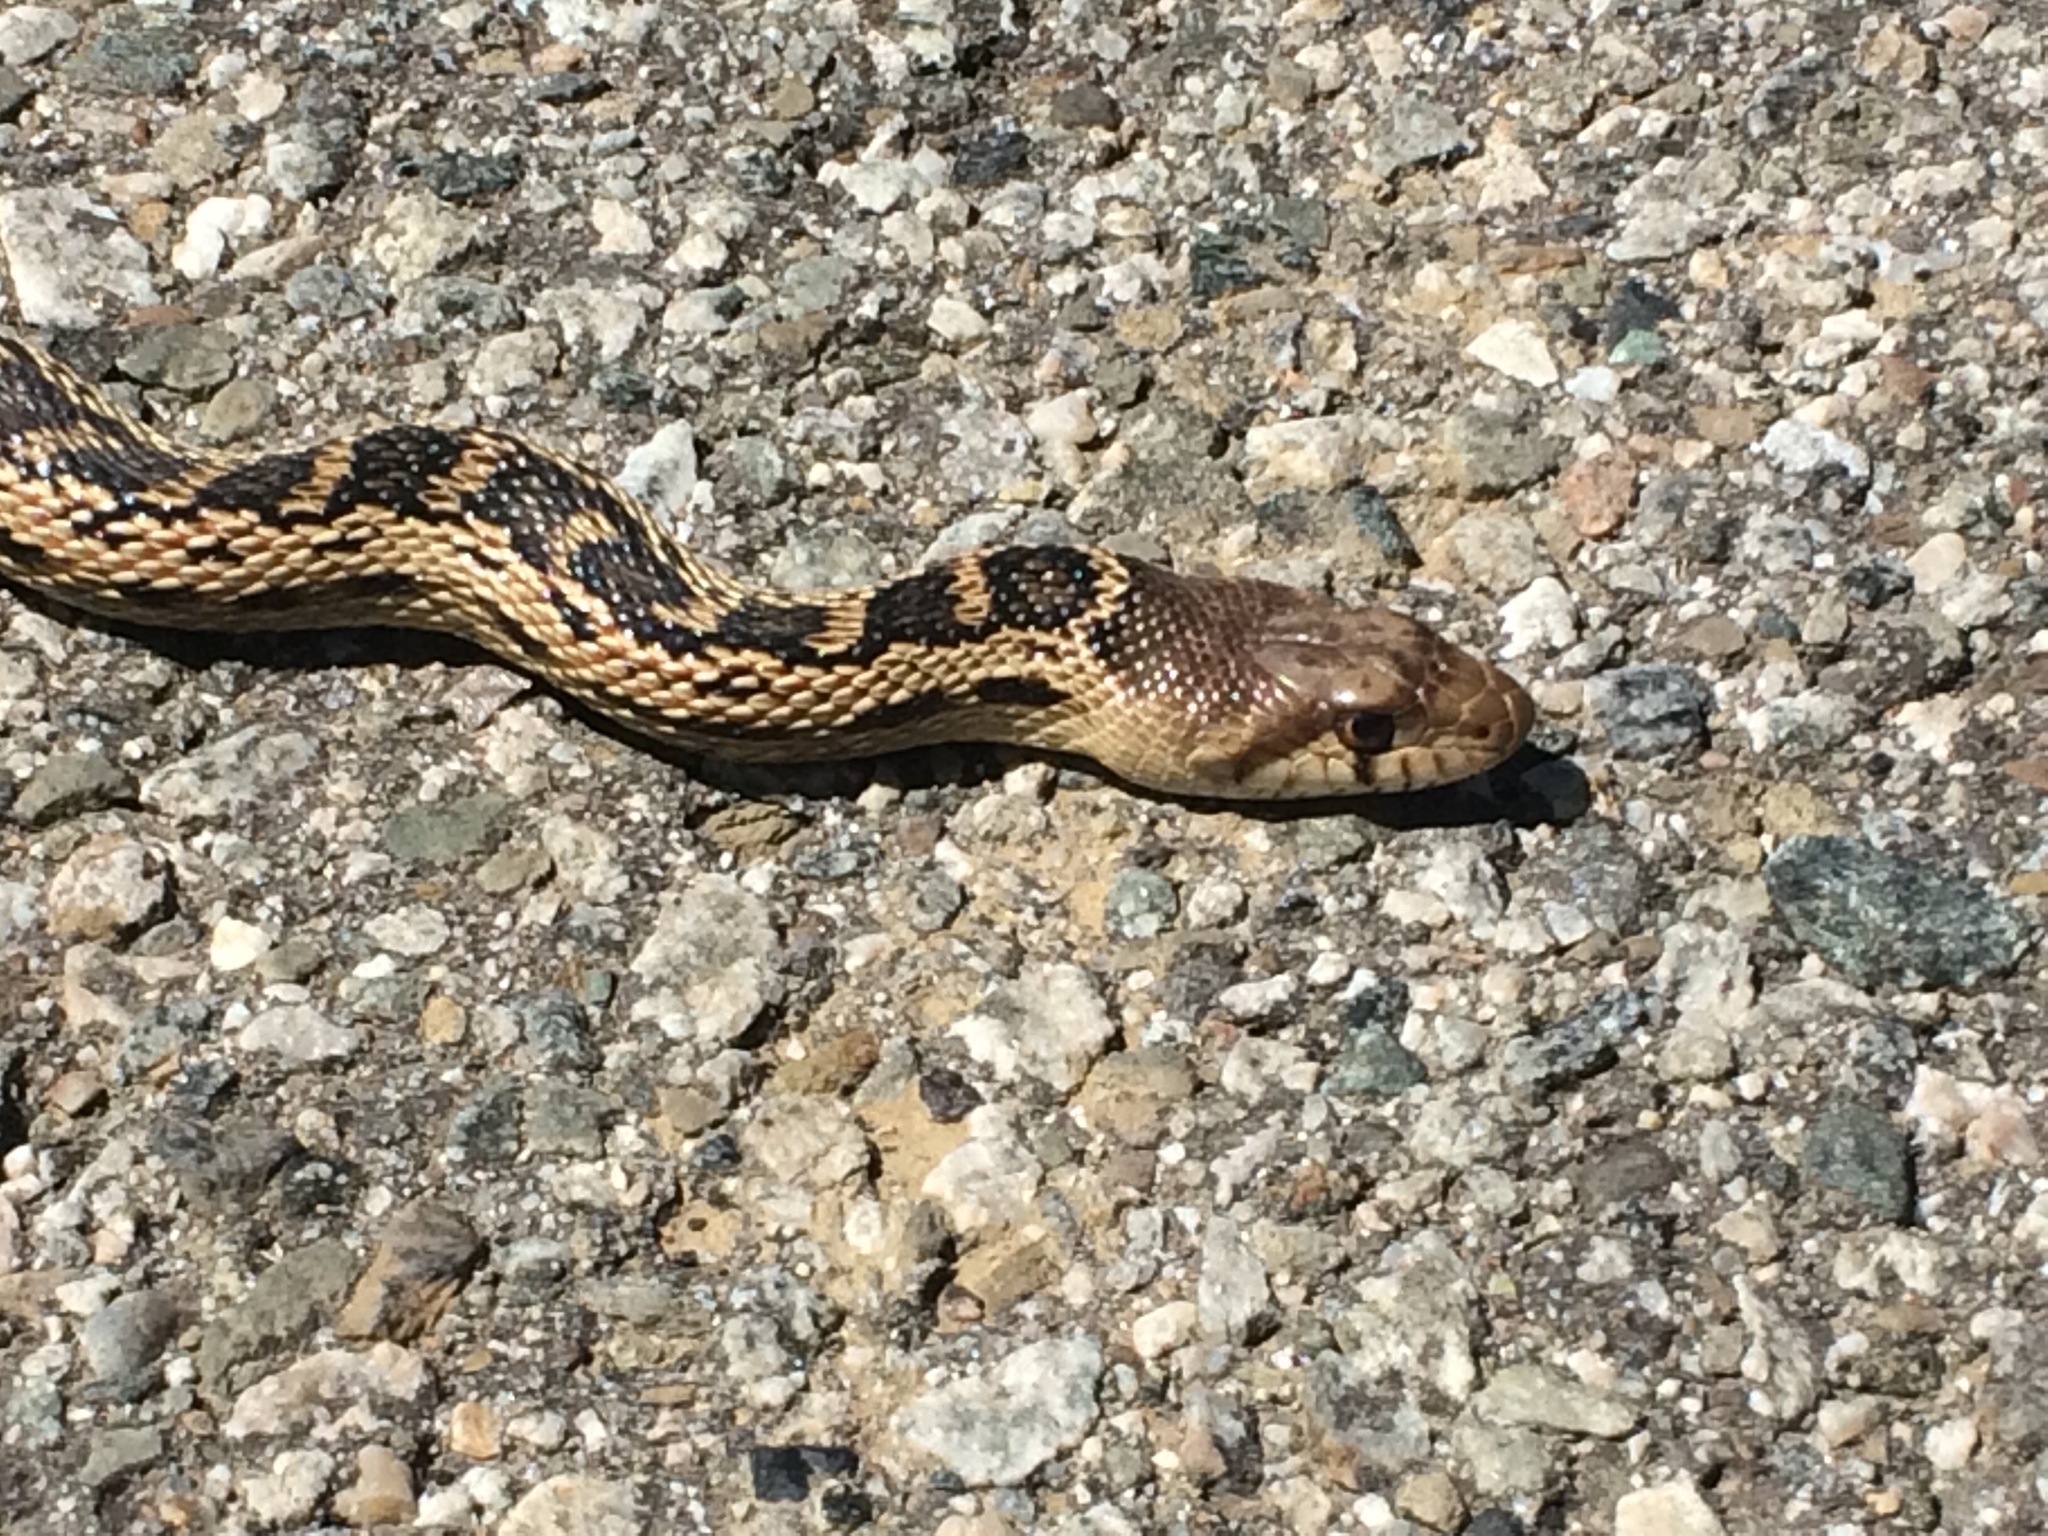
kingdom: Animalia
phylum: Chordata
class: Squamata
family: Colubridae
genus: Pituophis
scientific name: Pituophis catenifer
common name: Gopher snake
